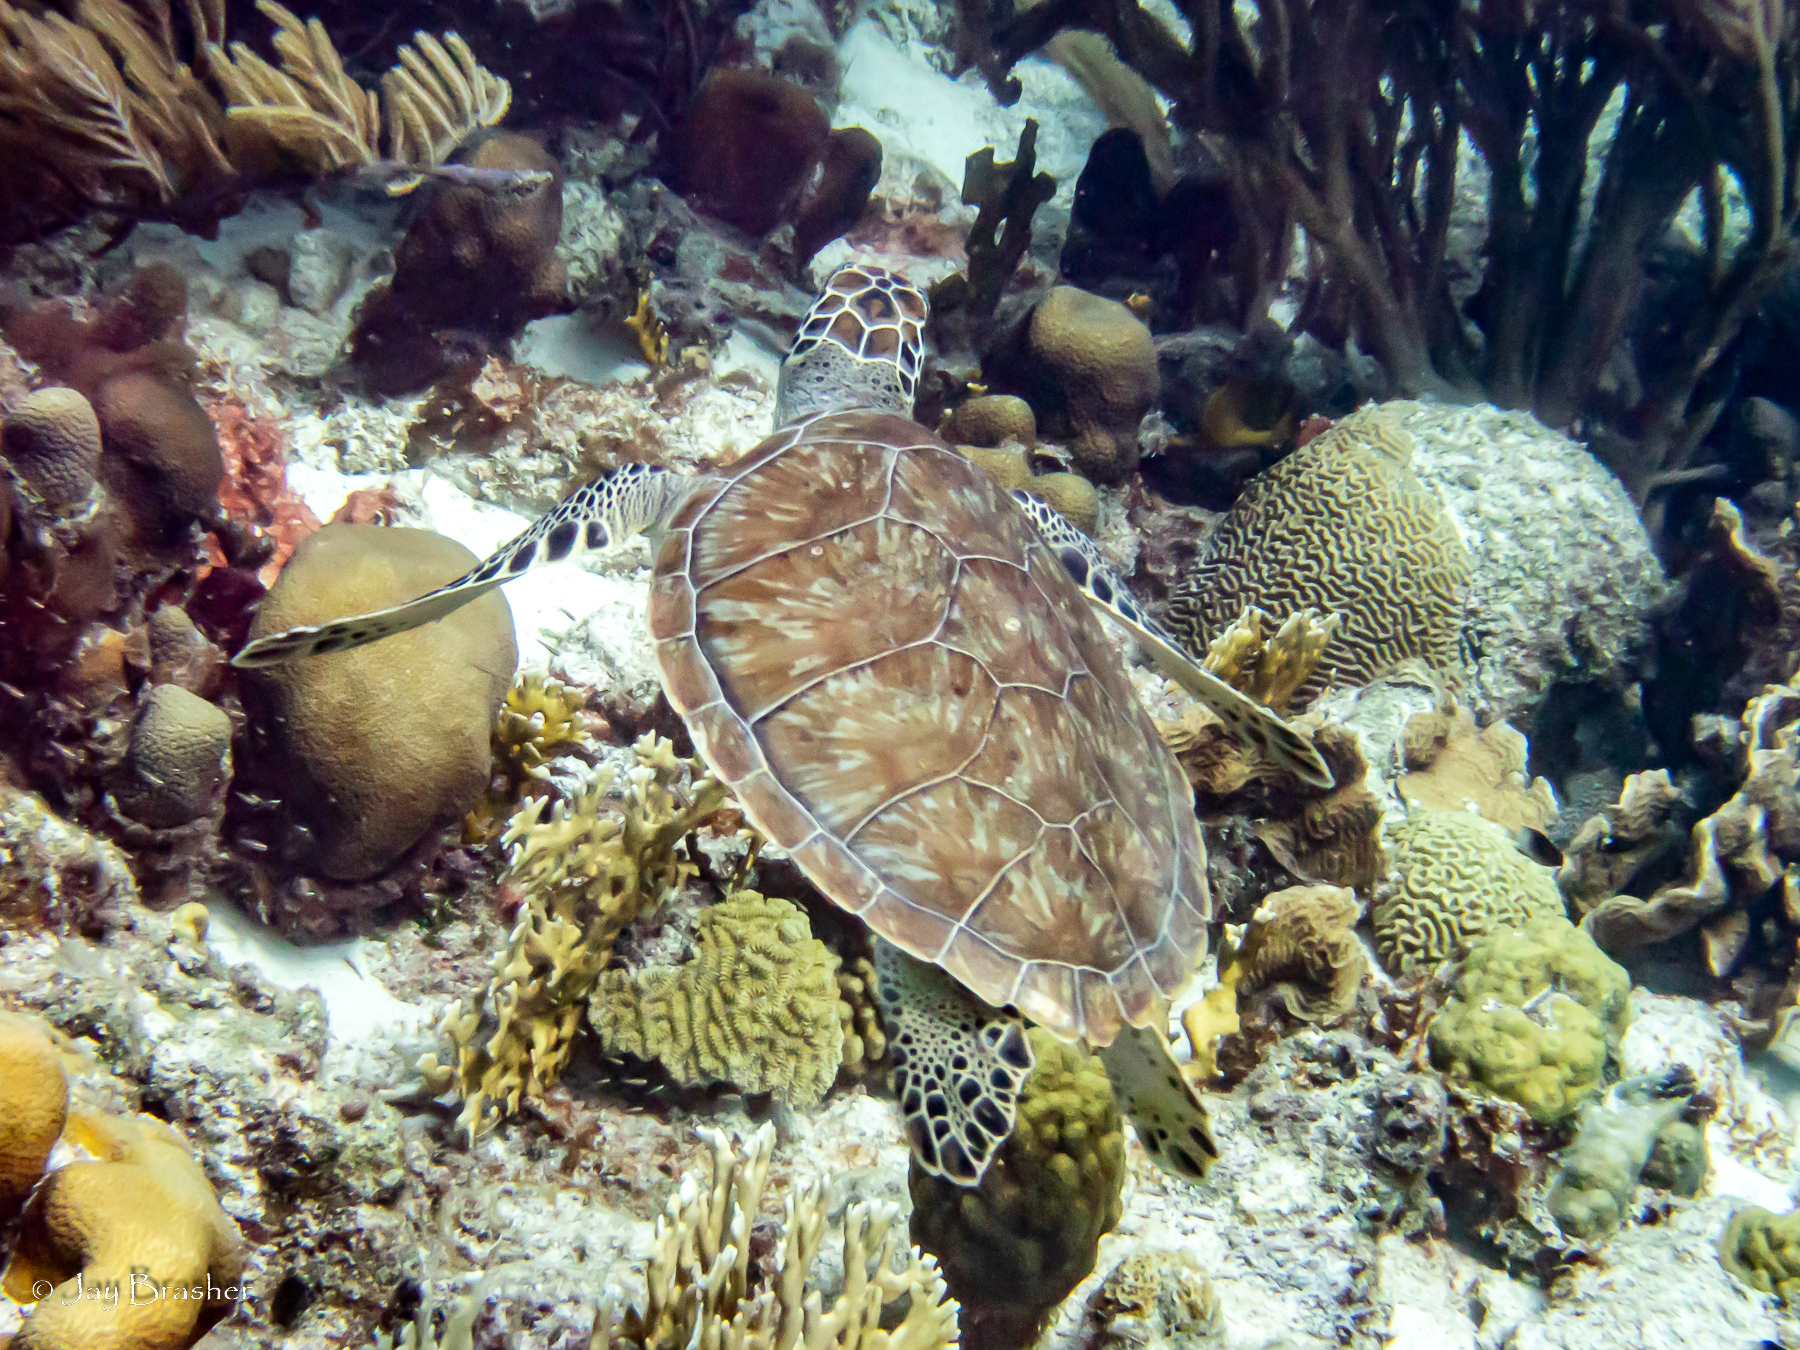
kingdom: Animalia
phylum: Chordata
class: Testudines
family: Cheloniidae
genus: Chelonia
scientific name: Chelonia mydas
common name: Green turtle
